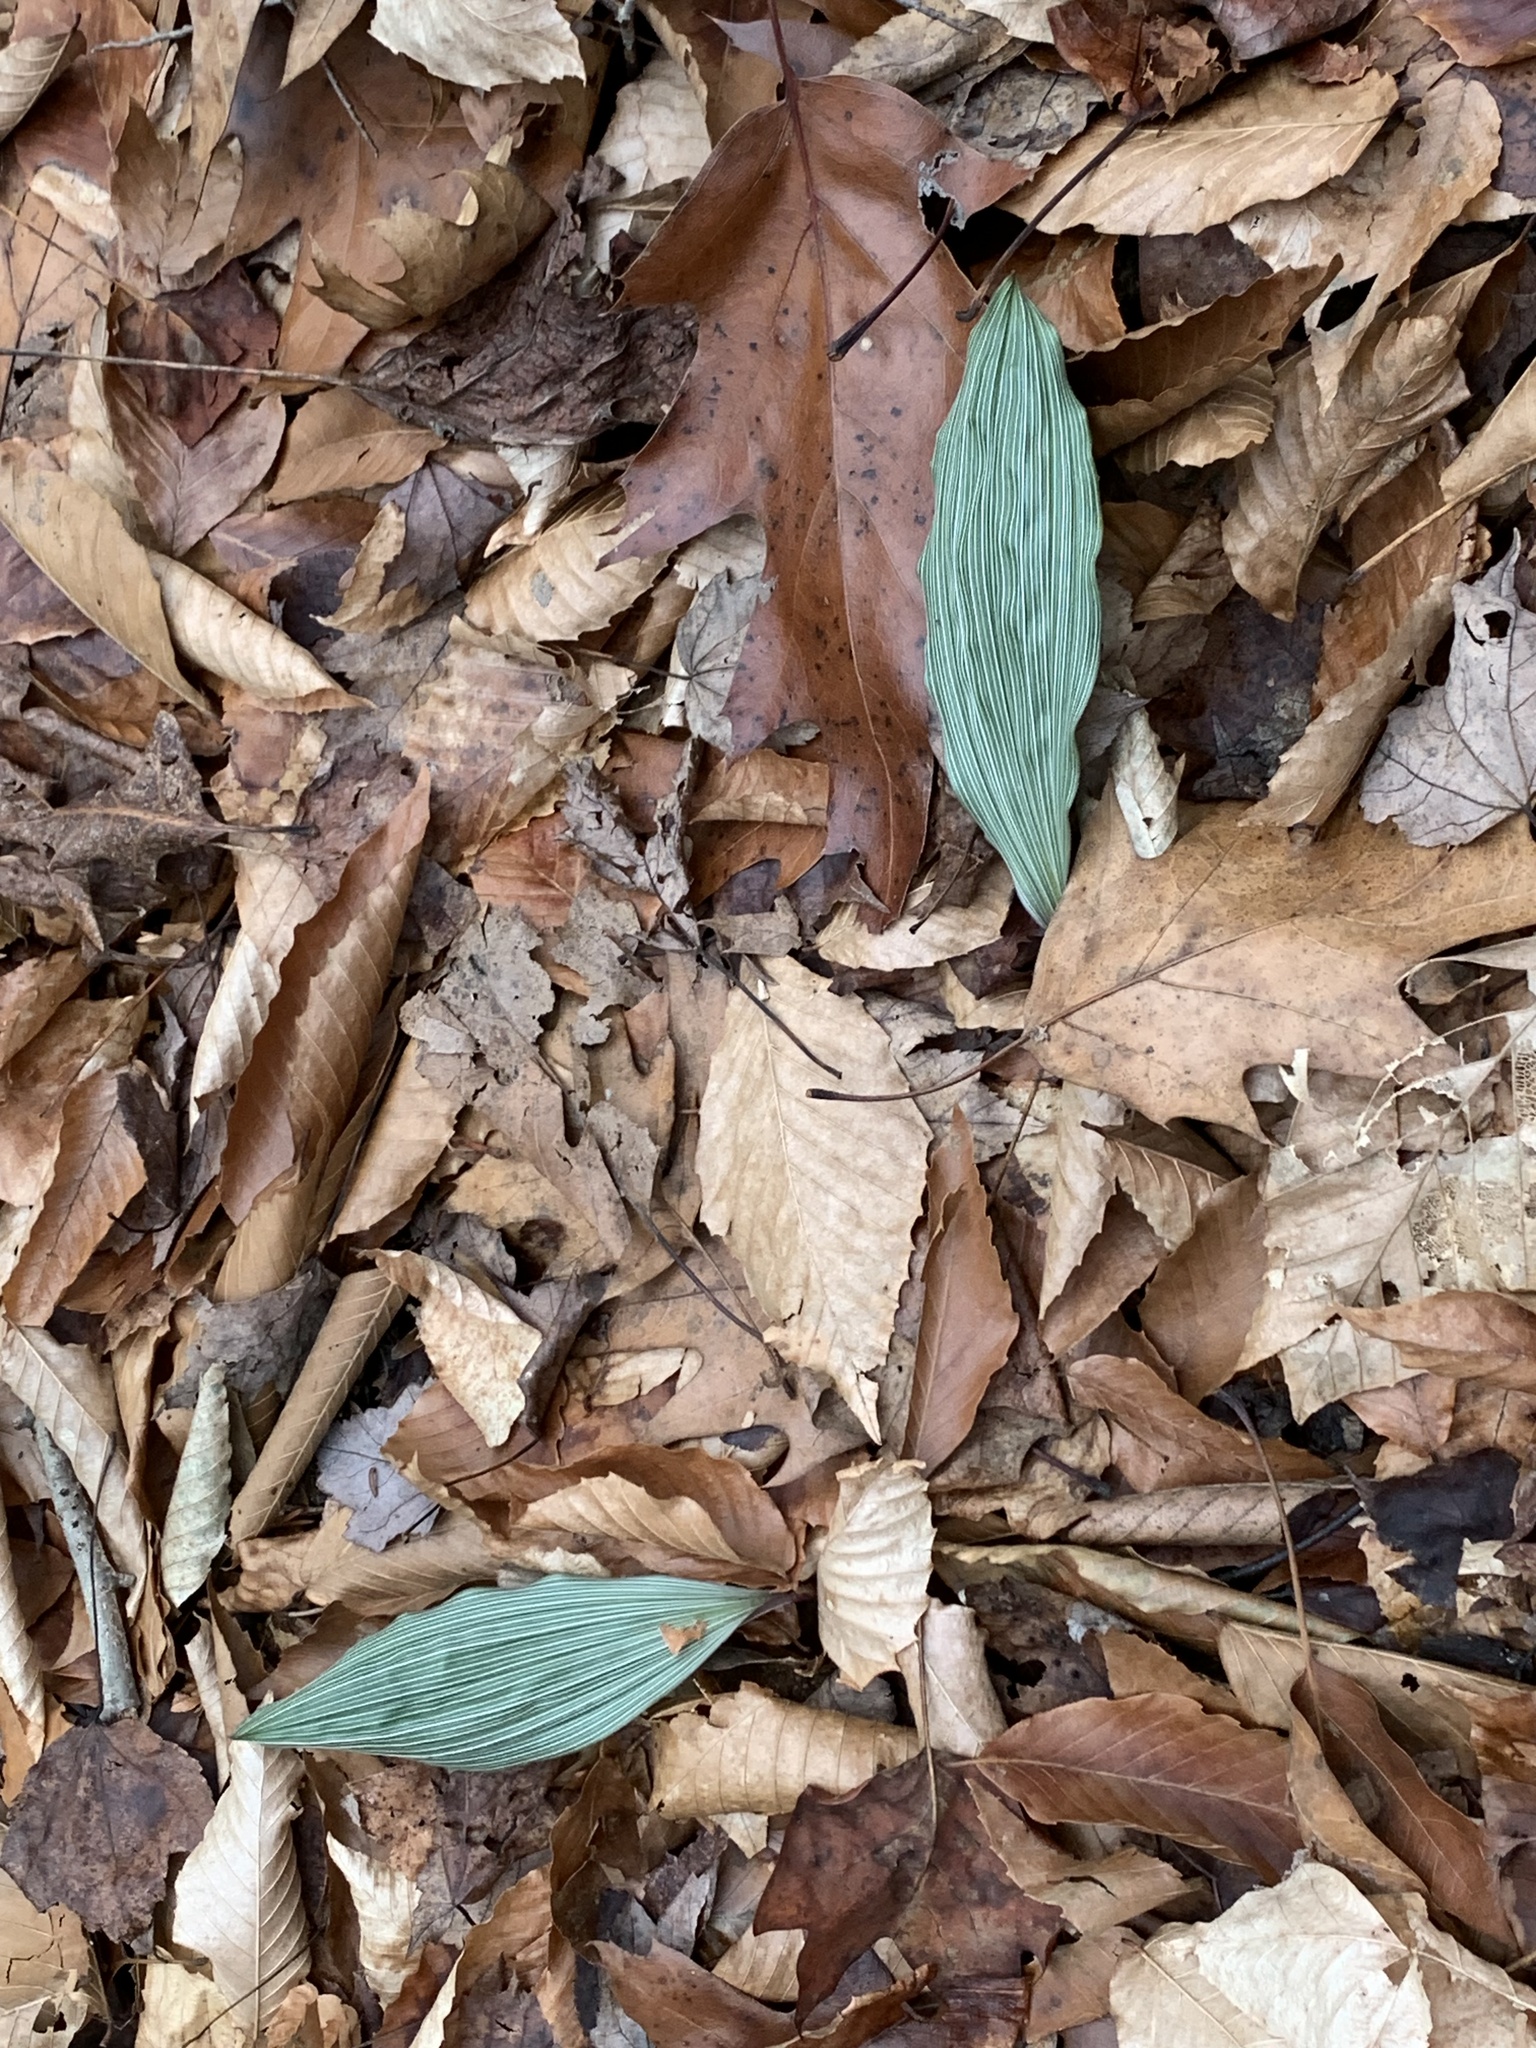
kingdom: Plantae
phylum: Tracheophyta
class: Liliopsida
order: Asparagales
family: Orchidaceae
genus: Aplectrum
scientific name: Aplectrum hyemale
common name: Adam-and-eve
